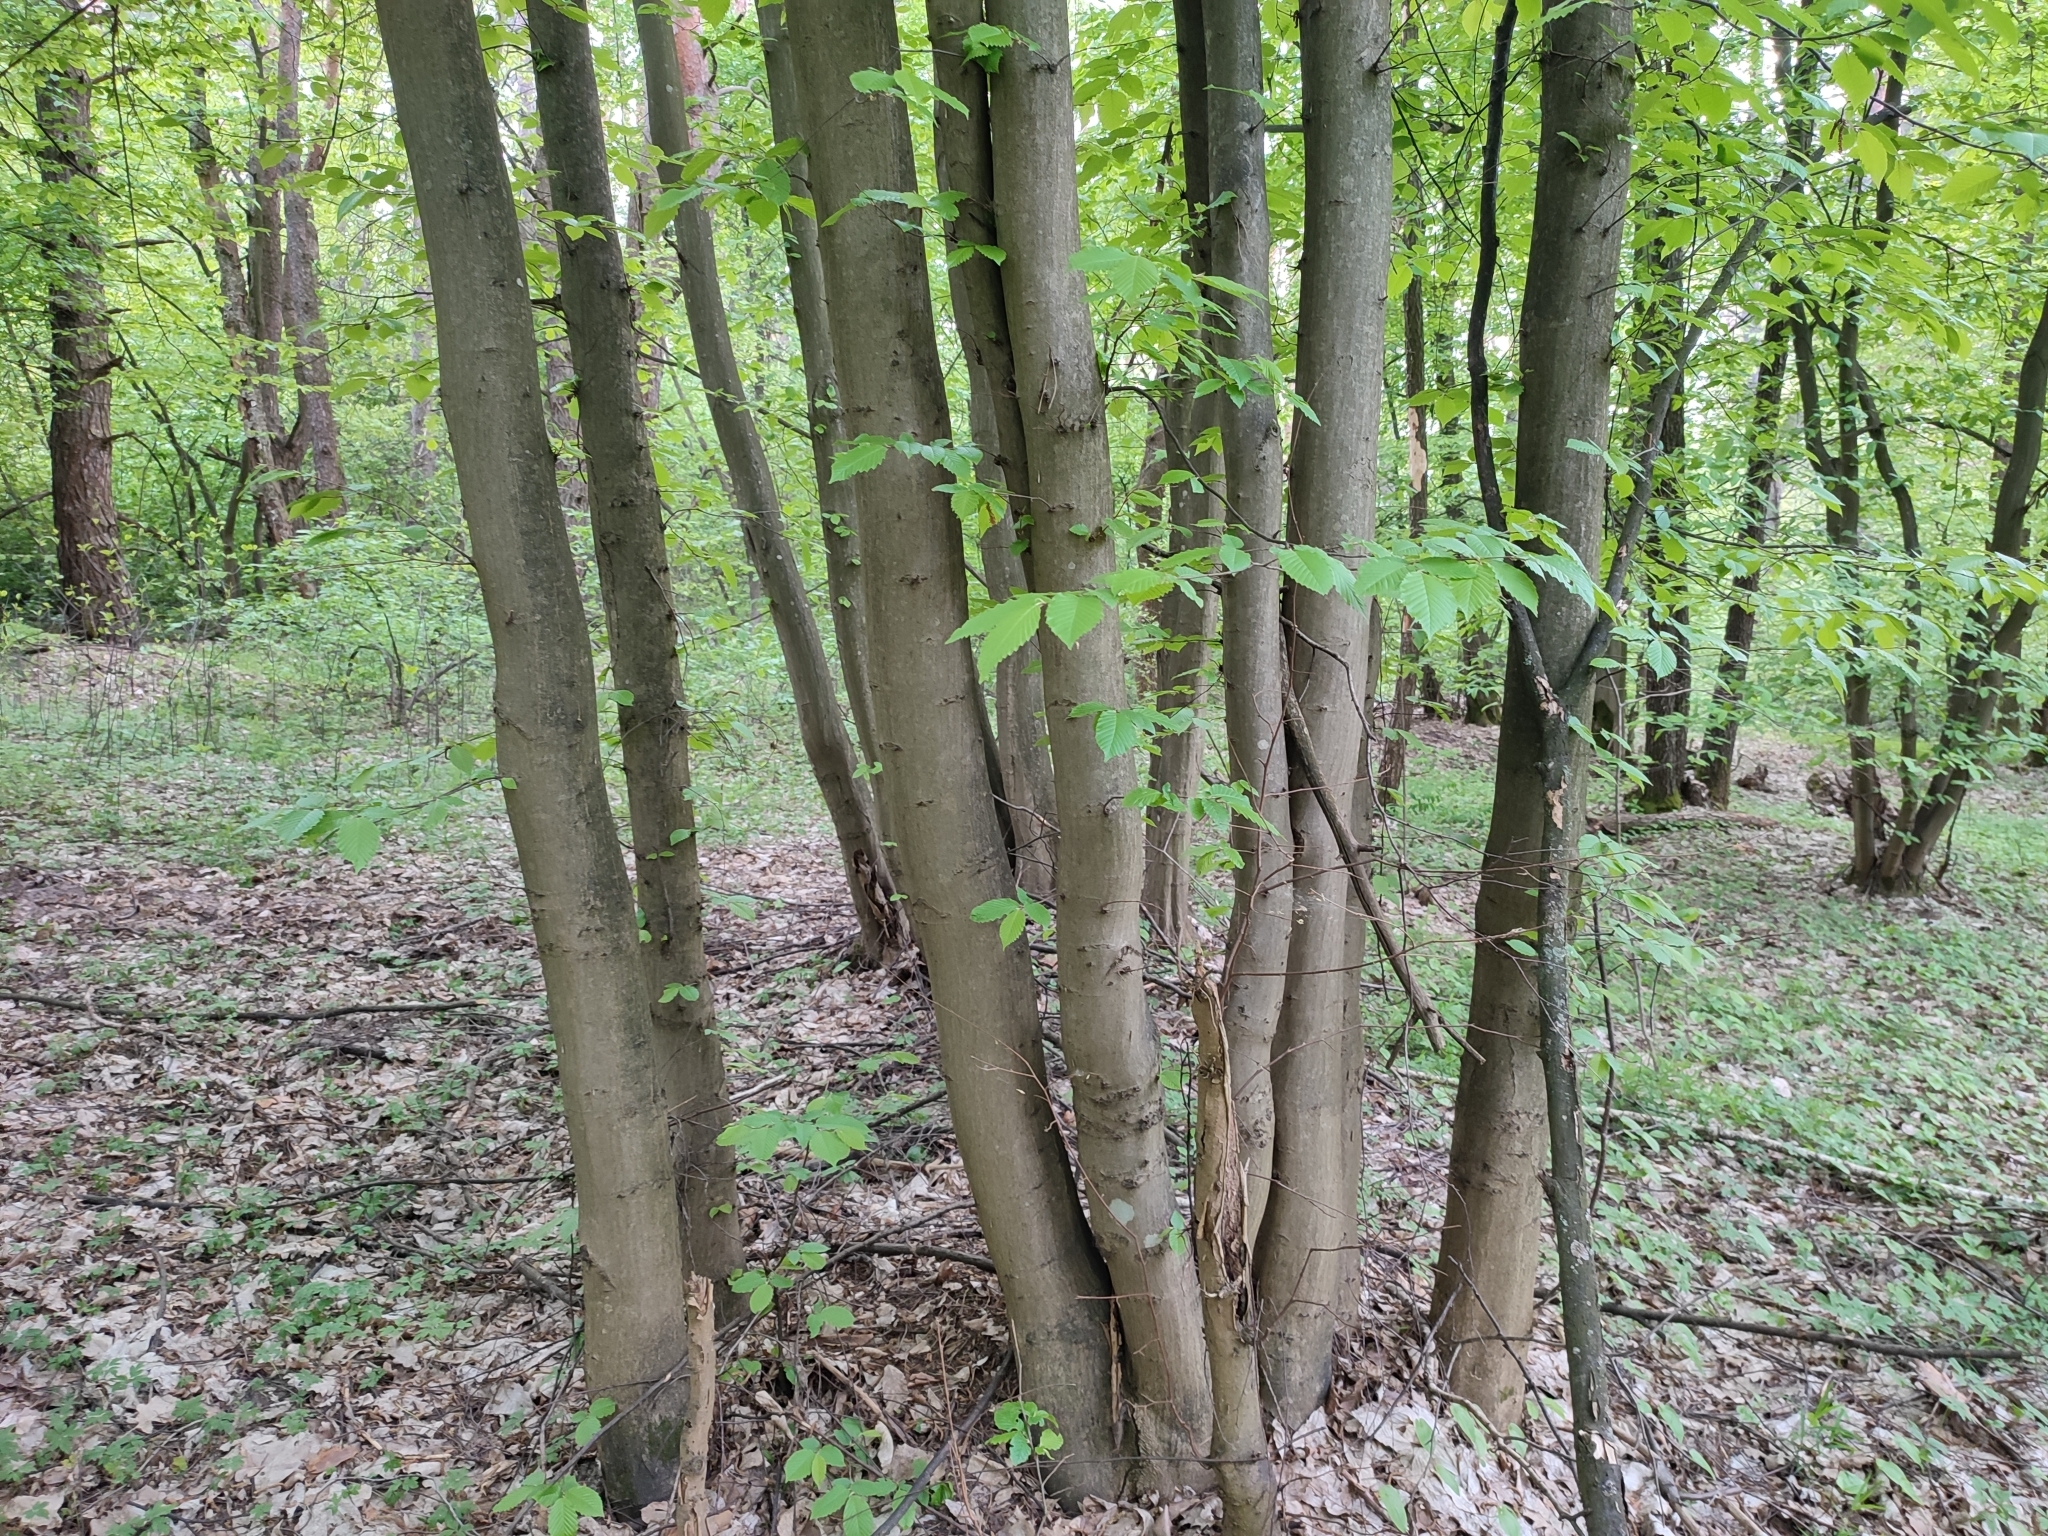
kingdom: Plantae
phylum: Tracheophyta
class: Magnoliopsida
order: Fagales
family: Betulaceae
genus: Carpinus
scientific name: Carpinus betulus
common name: Hornbeam
